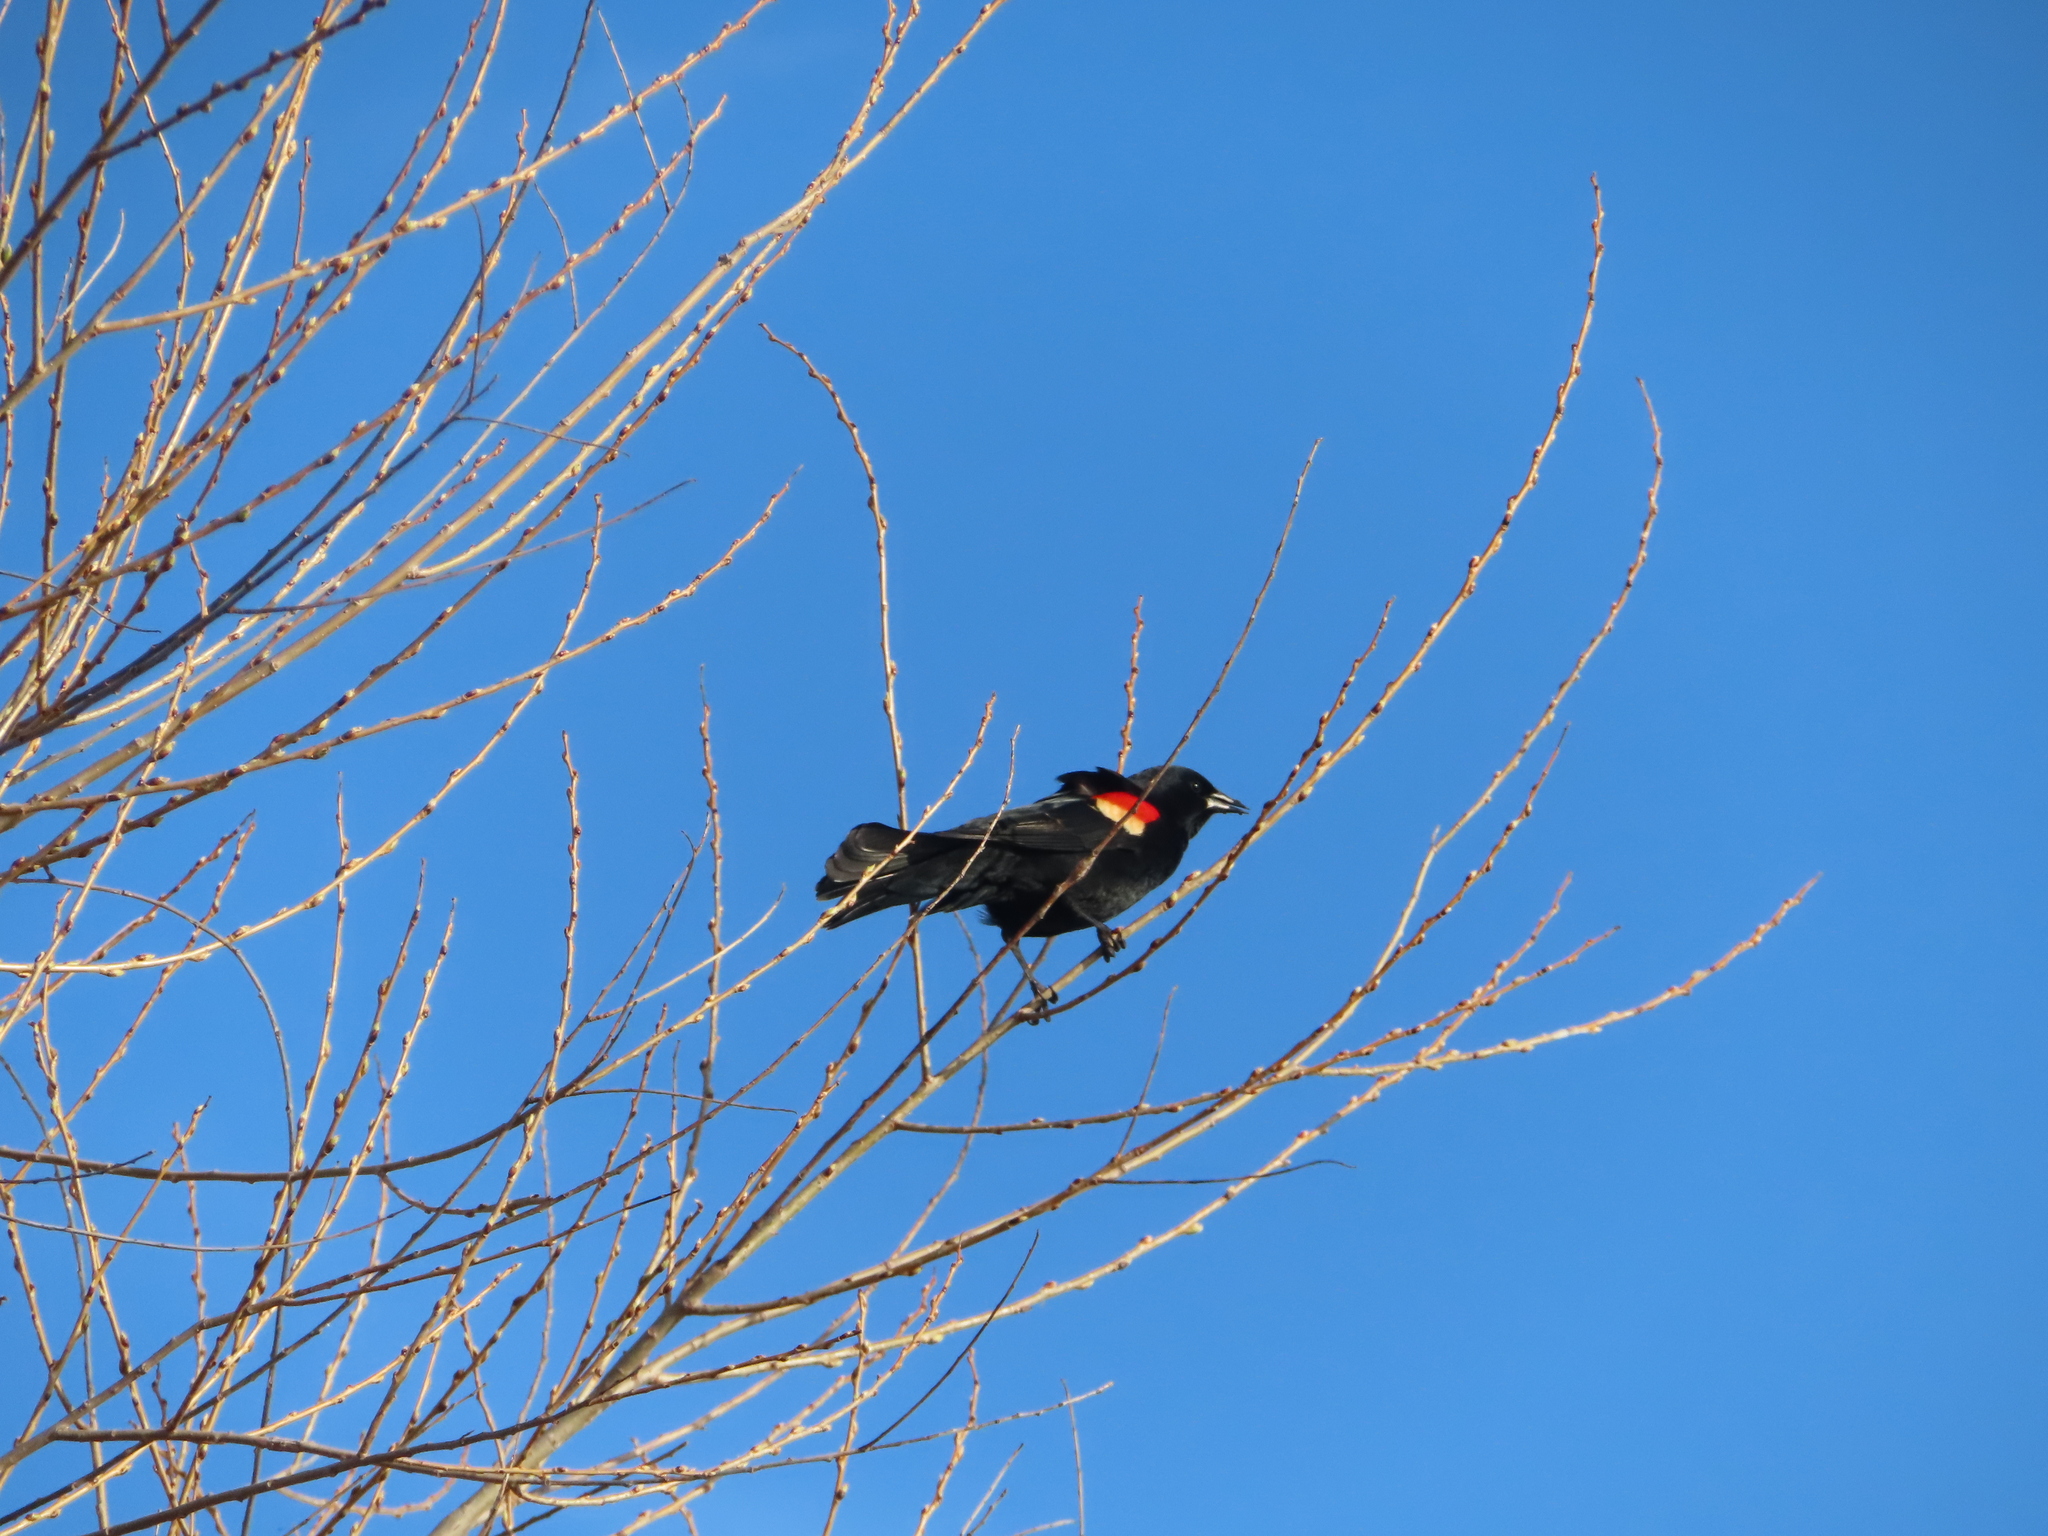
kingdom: Animalia
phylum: Chordata
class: Aves
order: Passeriformes
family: Icteridae
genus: Agelaius
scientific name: Agelaius phoeniceus
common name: Red-winged blackbird
